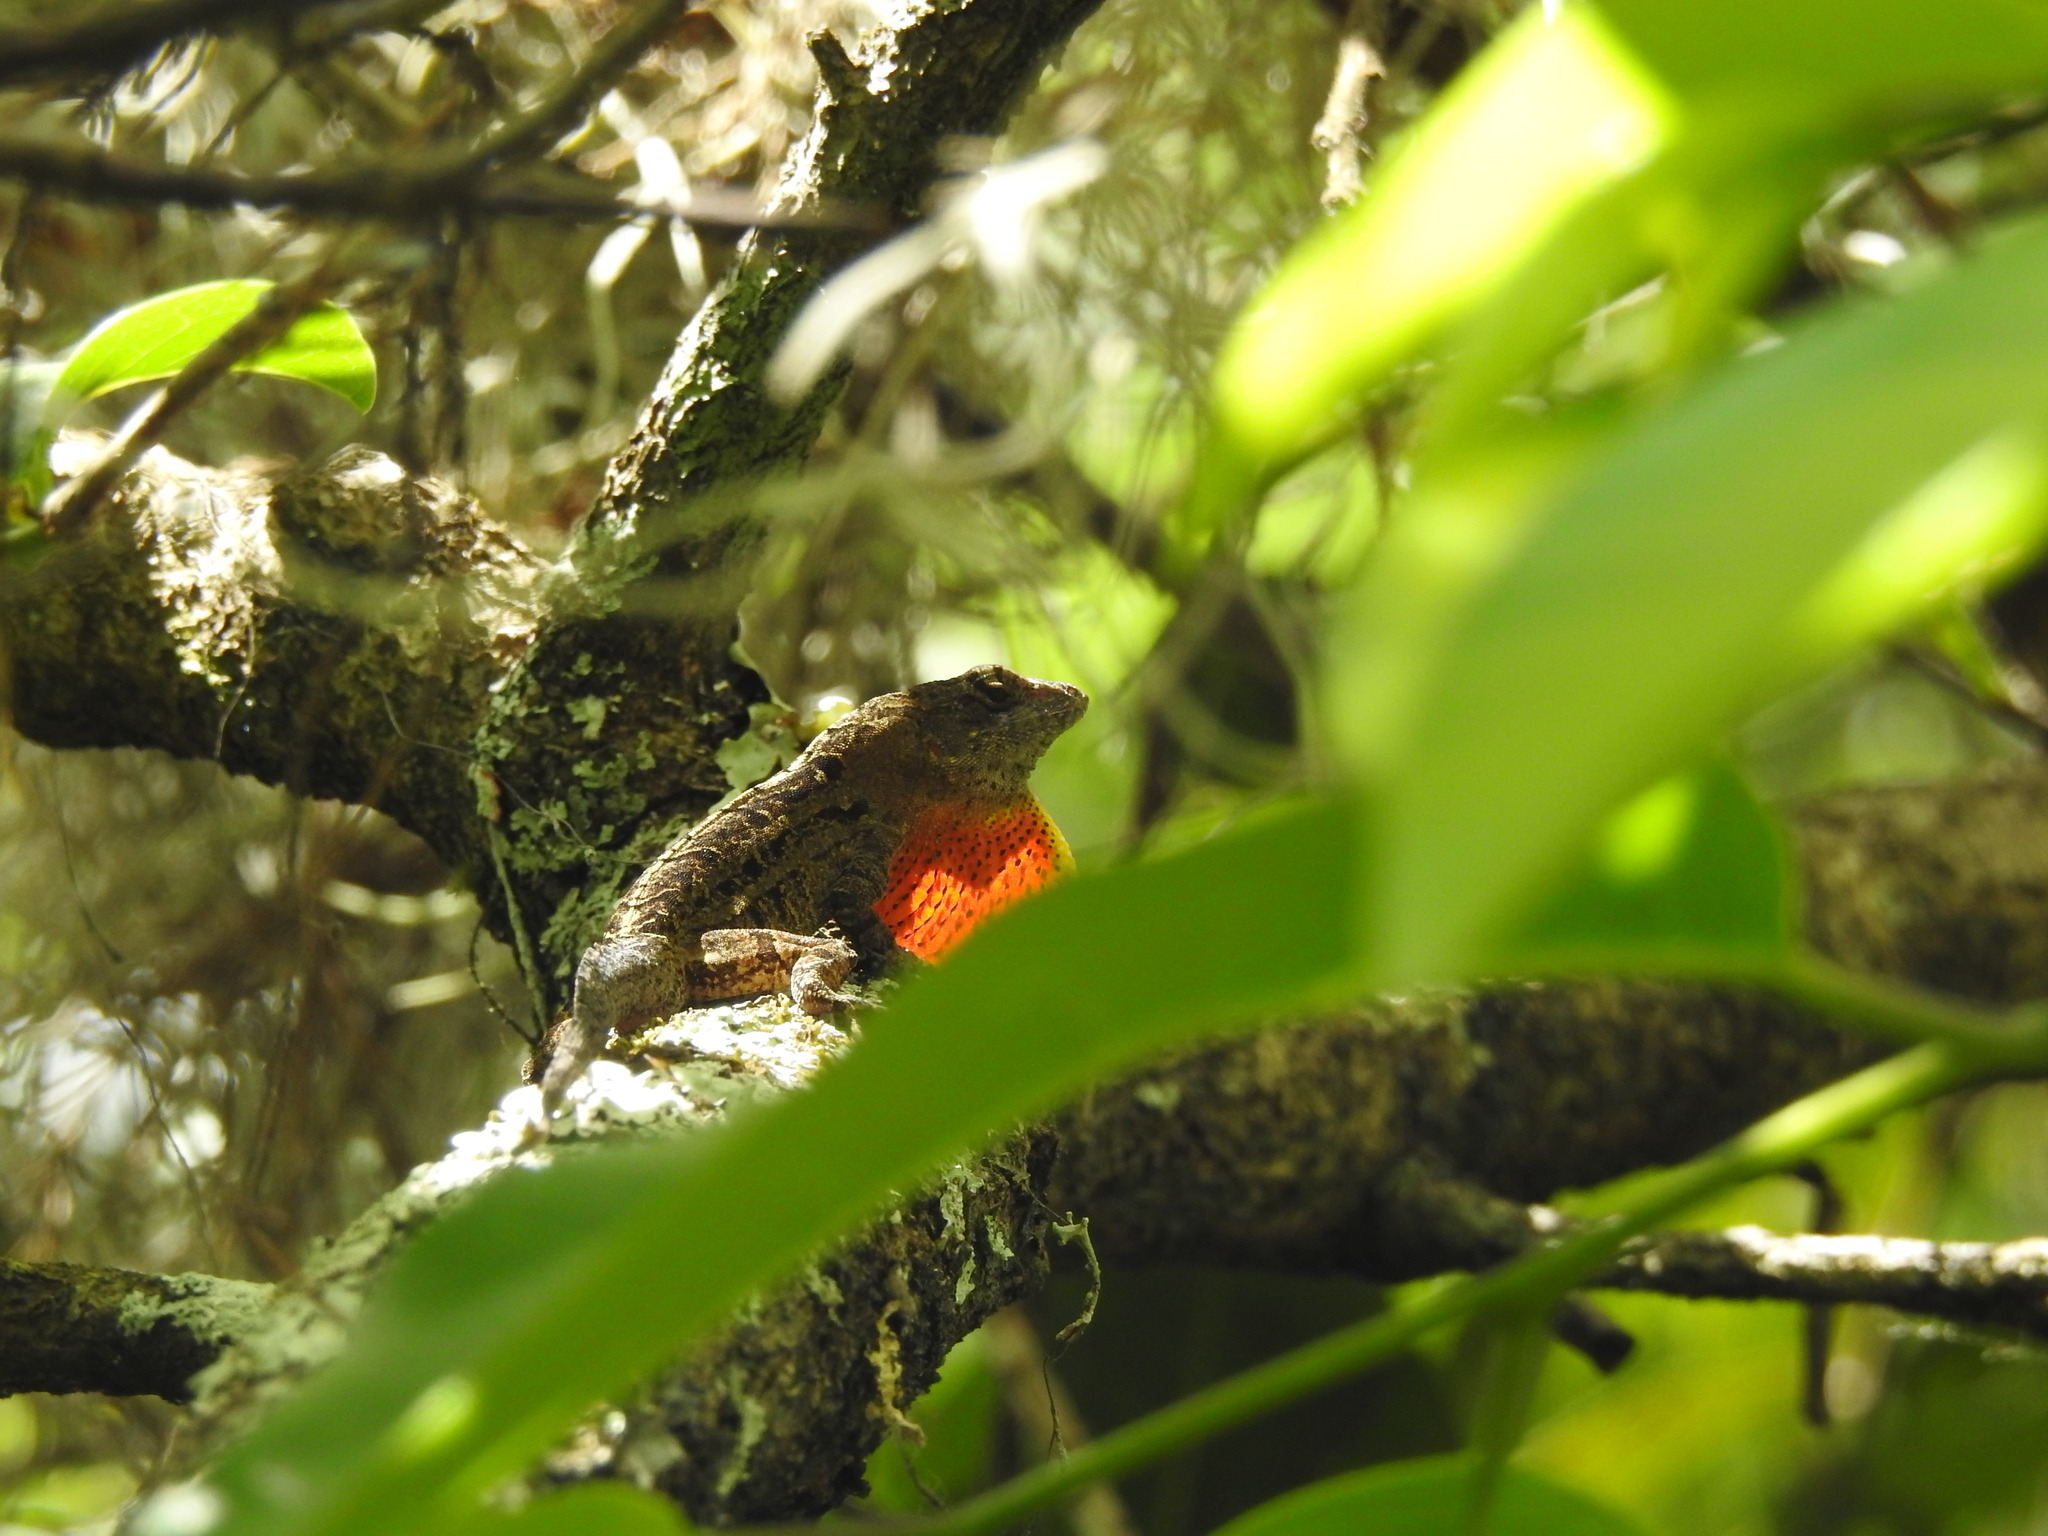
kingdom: Animalia
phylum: Chordata
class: Squamata
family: Dactyloidae
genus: Anolis
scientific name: Anolis sagrei
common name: Brown anole
